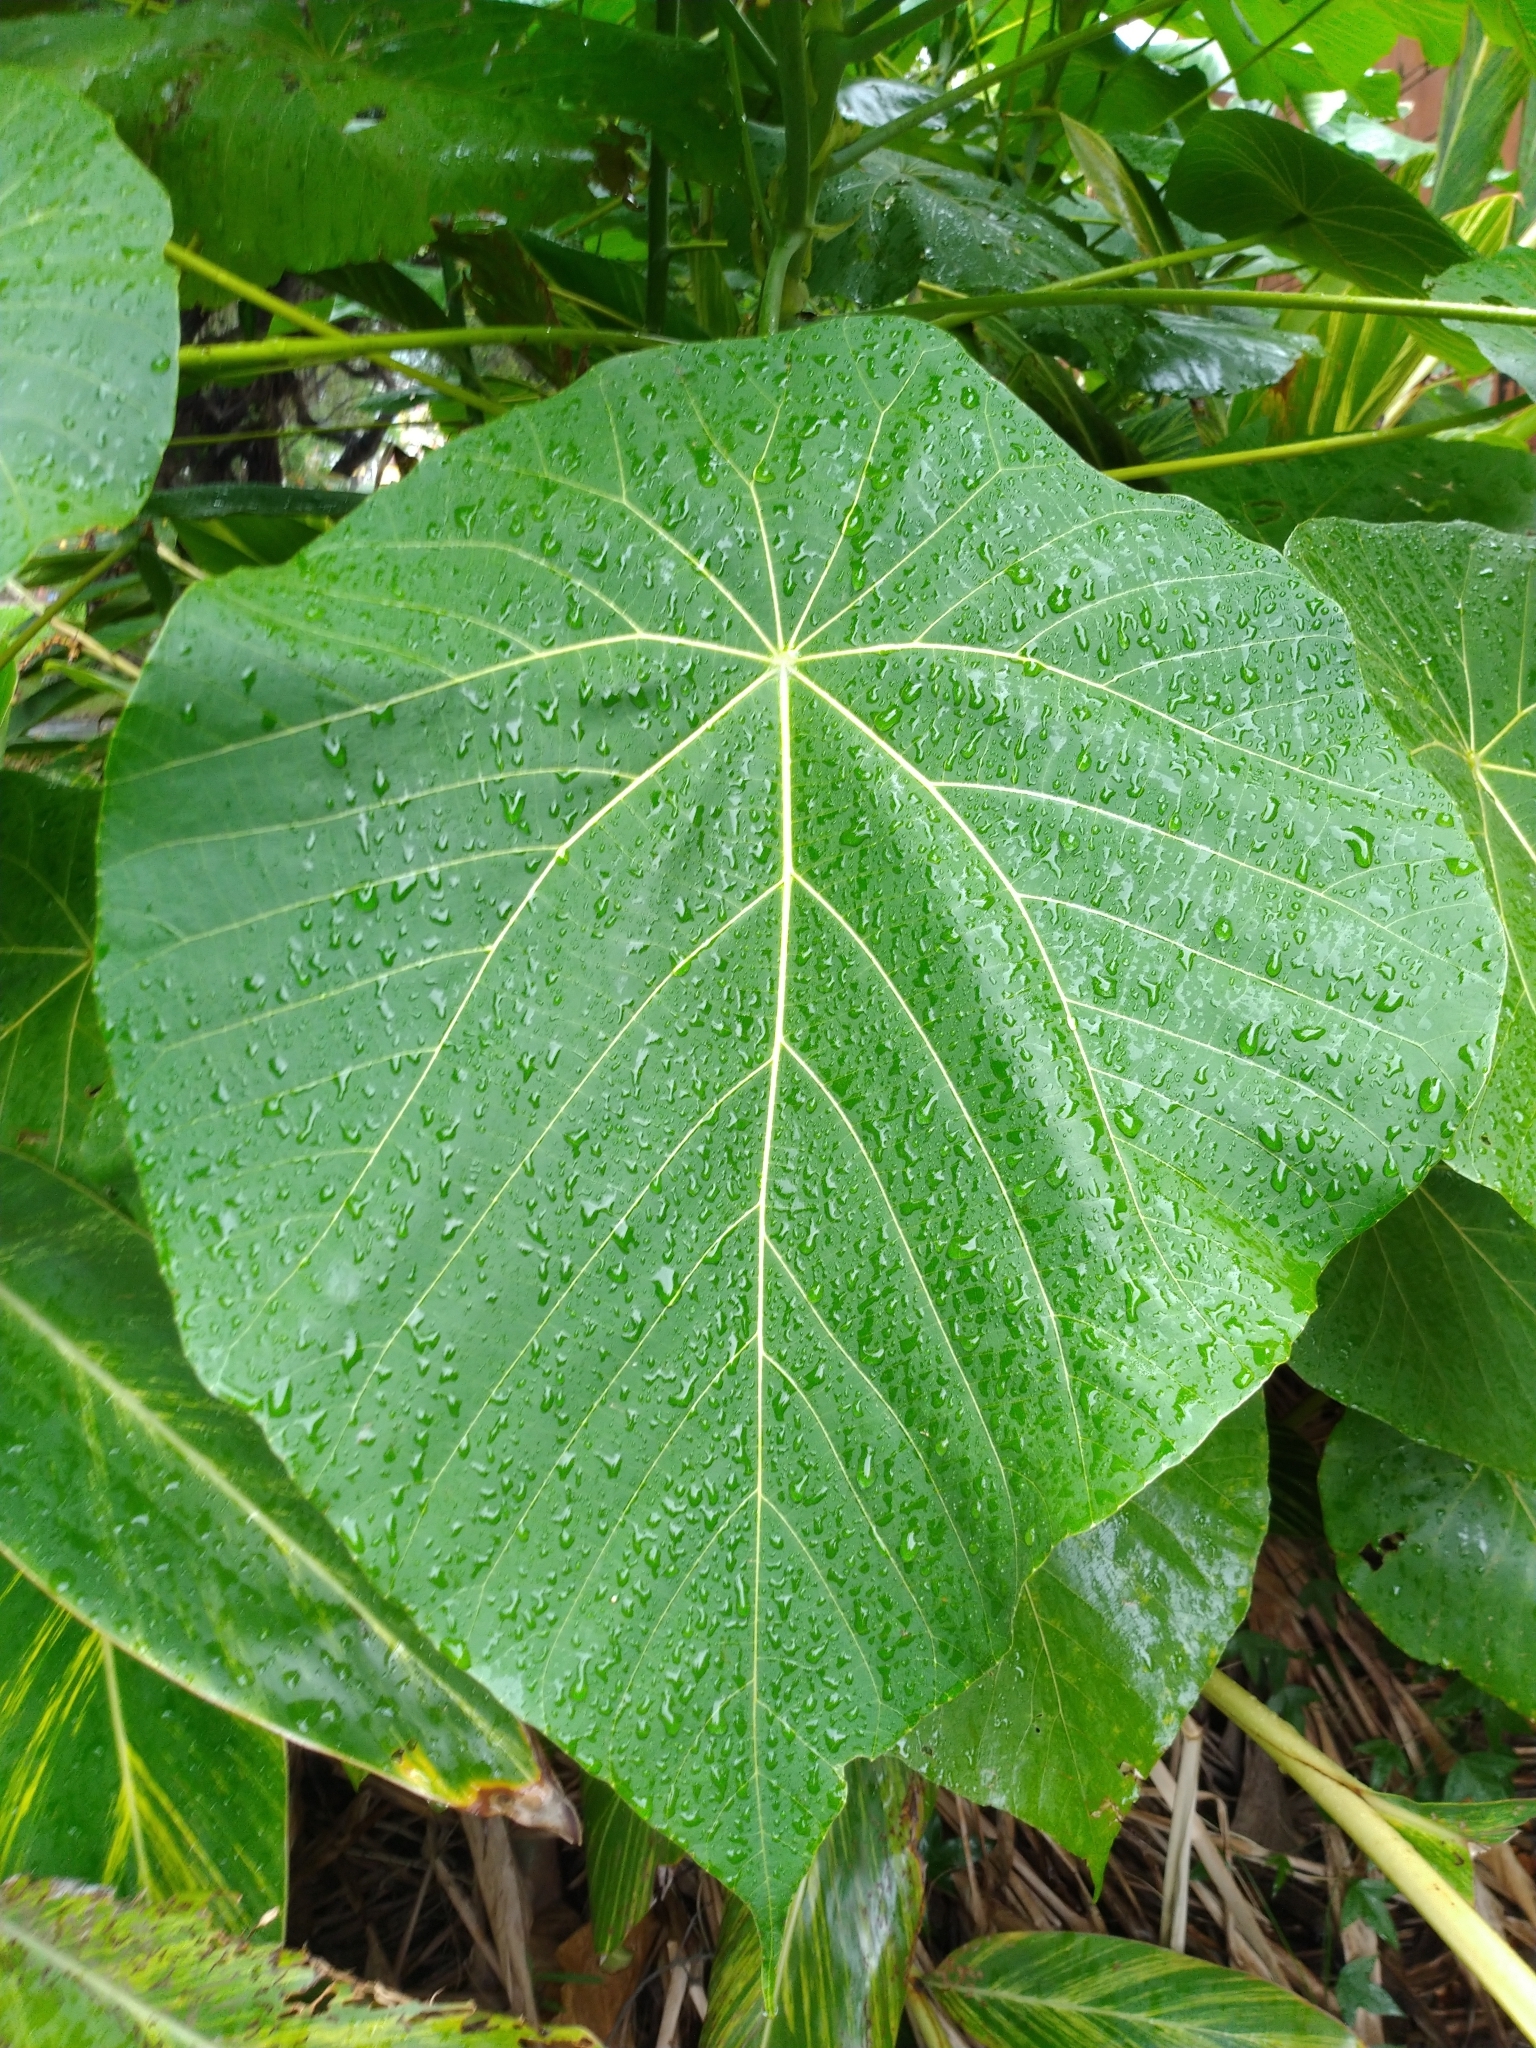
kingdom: Plantae
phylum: Tracheophyta
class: Magnoliopsida
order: Malpighiales
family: Euphorbiaceae
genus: Macaranga
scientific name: Macaranga tanarius
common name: Parasol leaf tree
